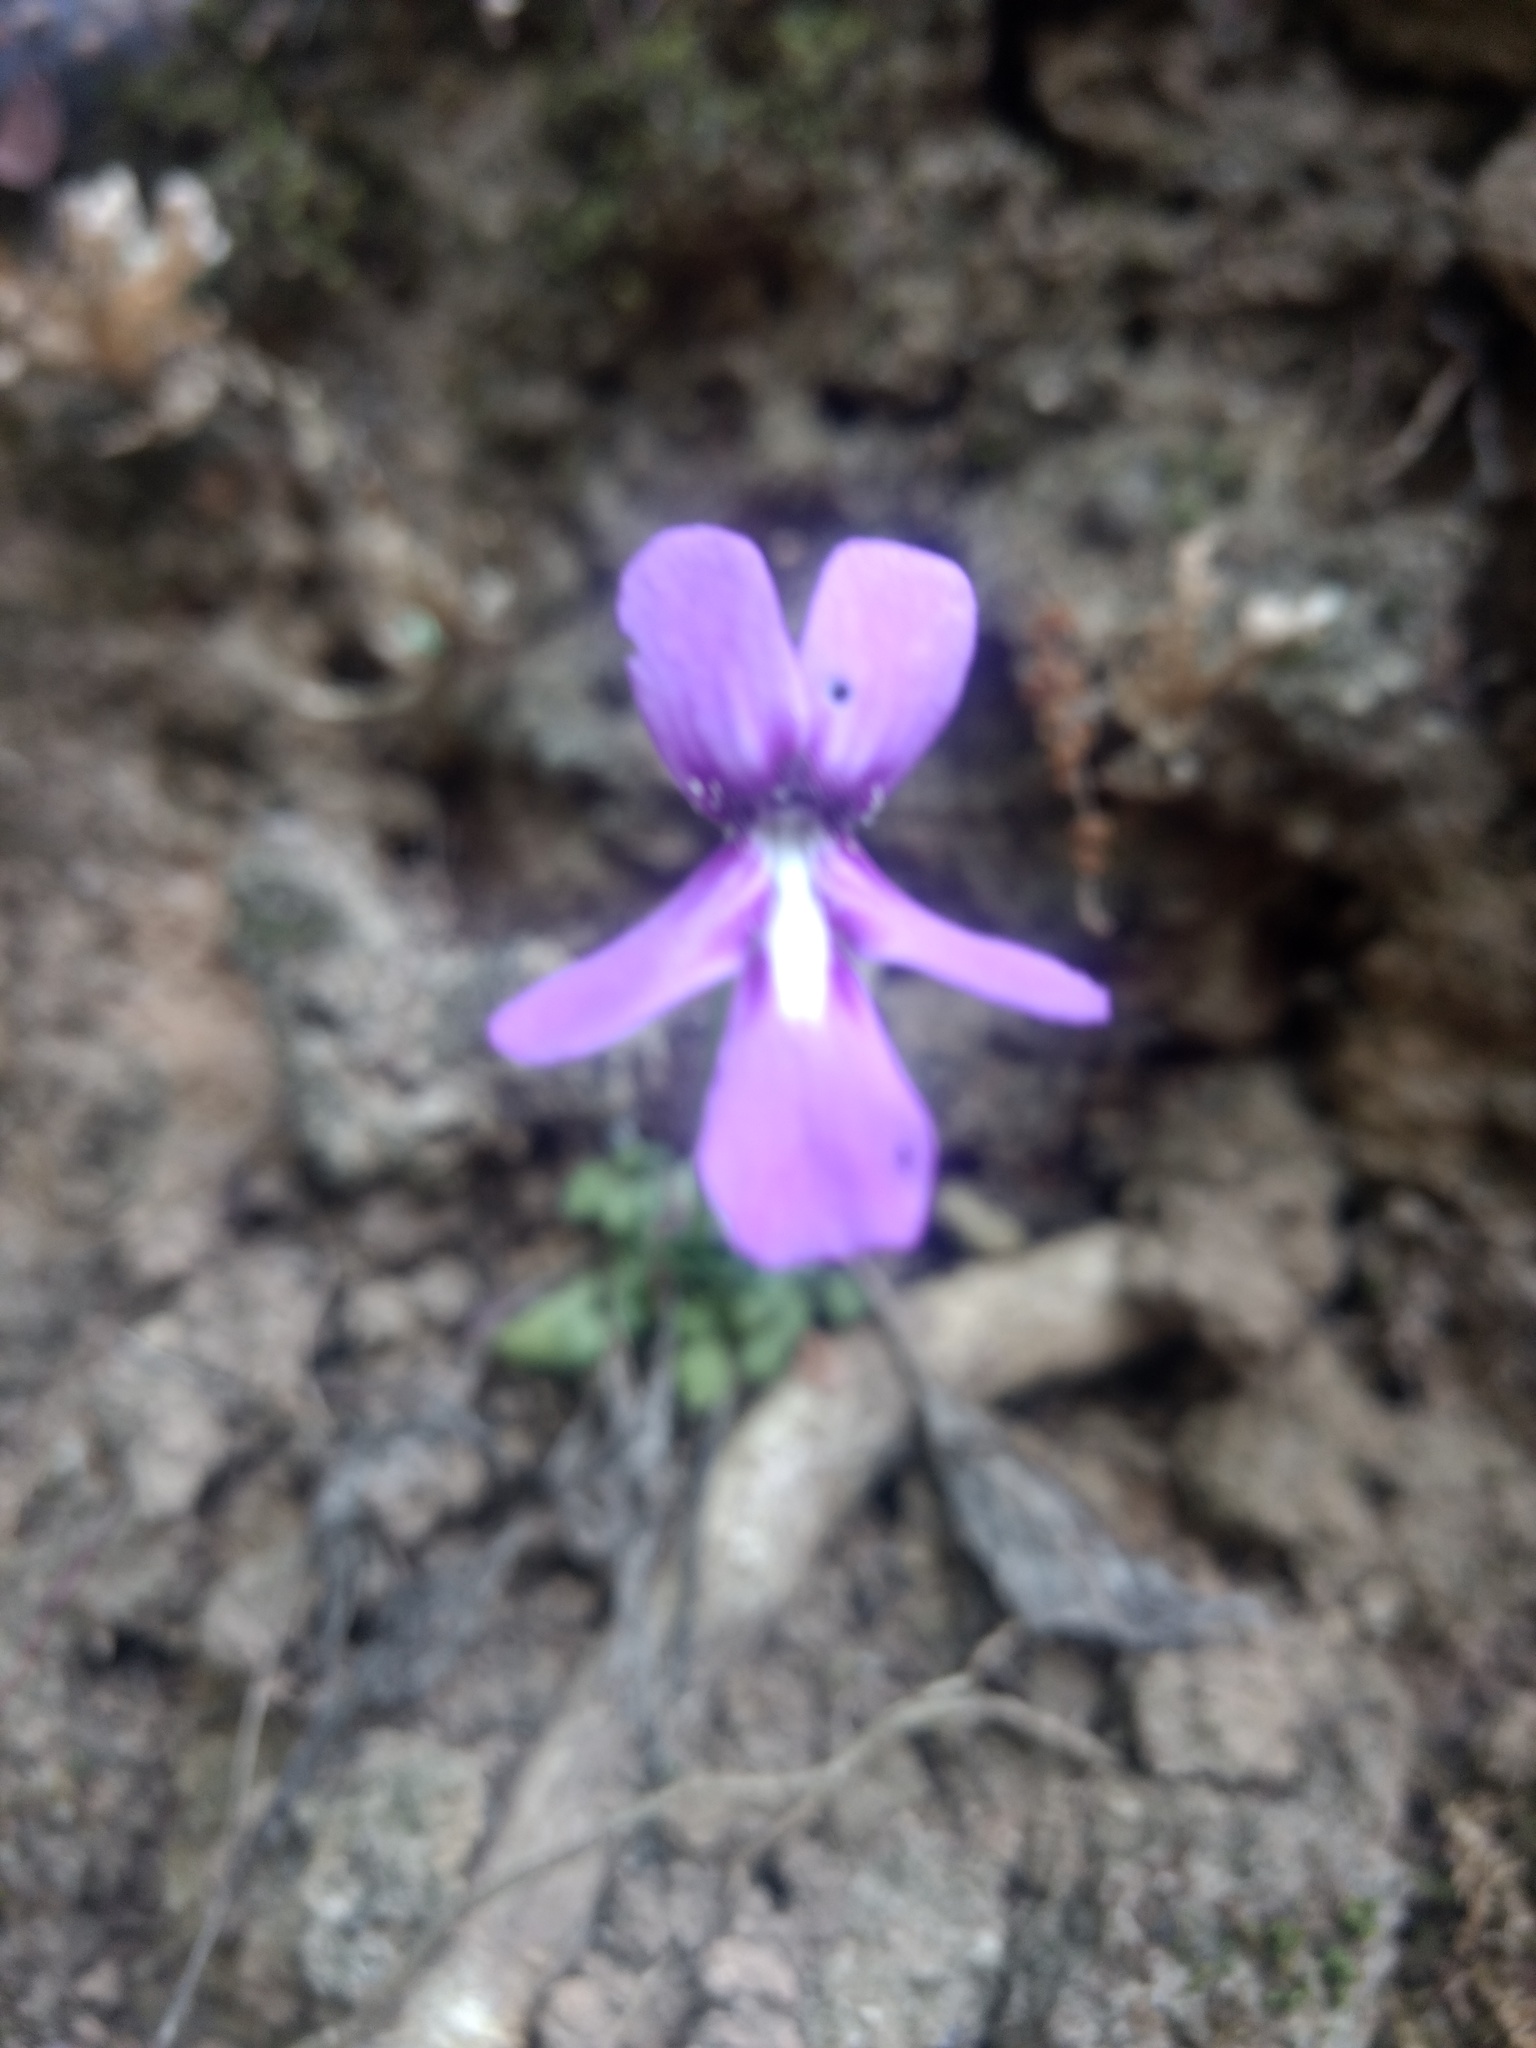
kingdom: Plantae
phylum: Tracheophyta
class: Magnoliopsida
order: Lamiales
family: Lentibulariaceae
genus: Pinguicula
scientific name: Pinguicula moranensis
